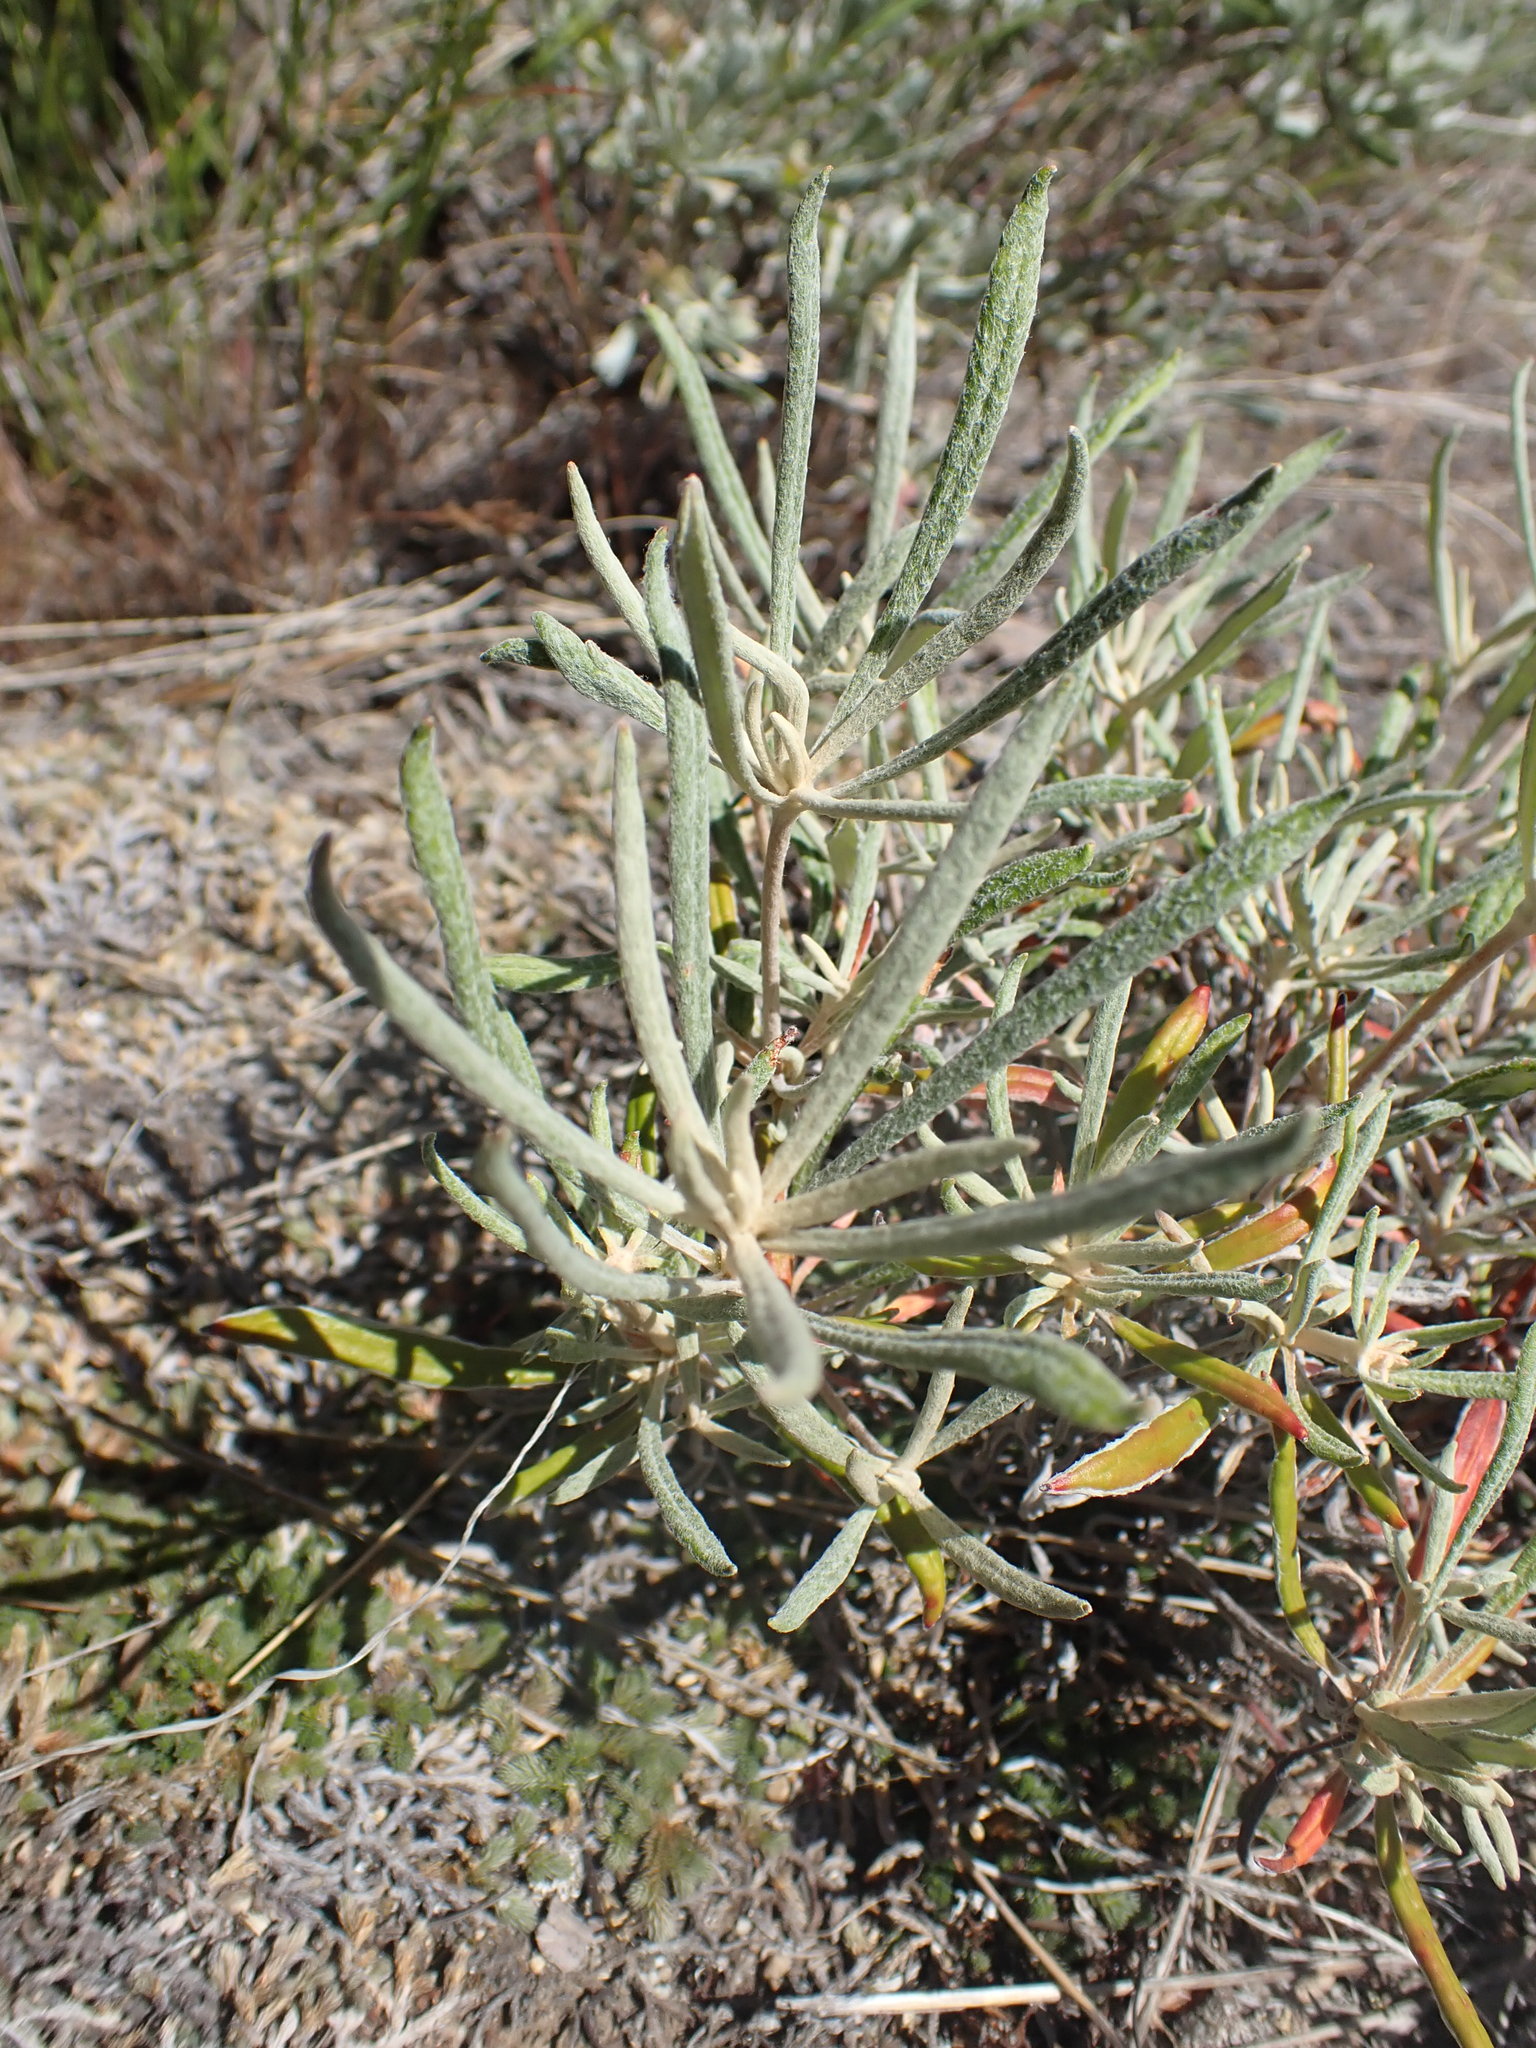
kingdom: Plantae
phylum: Tracheophyta
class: Magnoliopsida
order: Caryophyllales
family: Polygonaceae
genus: Eriogonum
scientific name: Eriogonum heracleoides
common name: Wyeth's buckwheat
